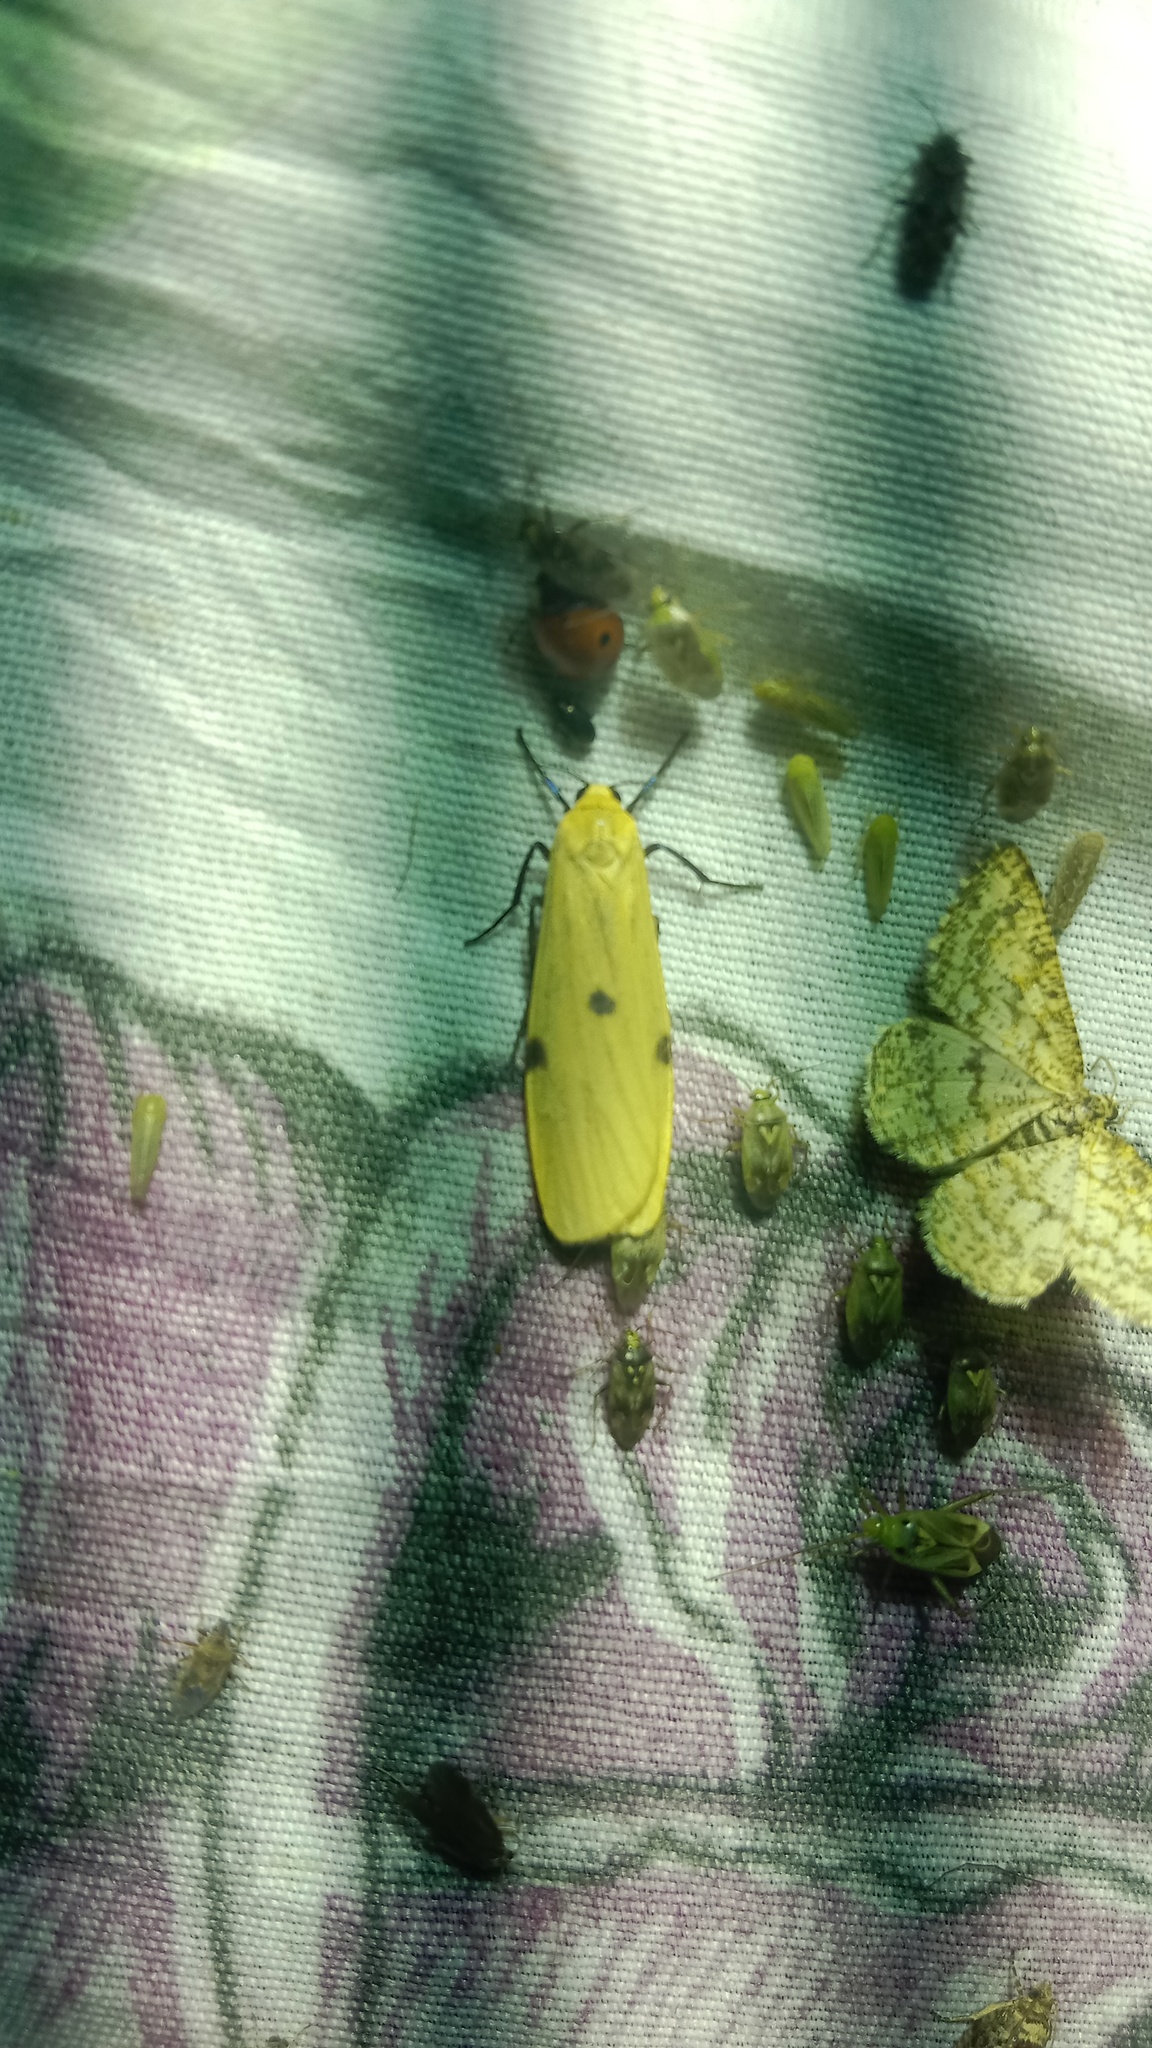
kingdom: Animalia
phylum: Arthropoda
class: Insecta
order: Lepidoptera
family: Erebidae
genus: Lithosia
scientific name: Lithosia quadra
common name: Four-spotted footman
